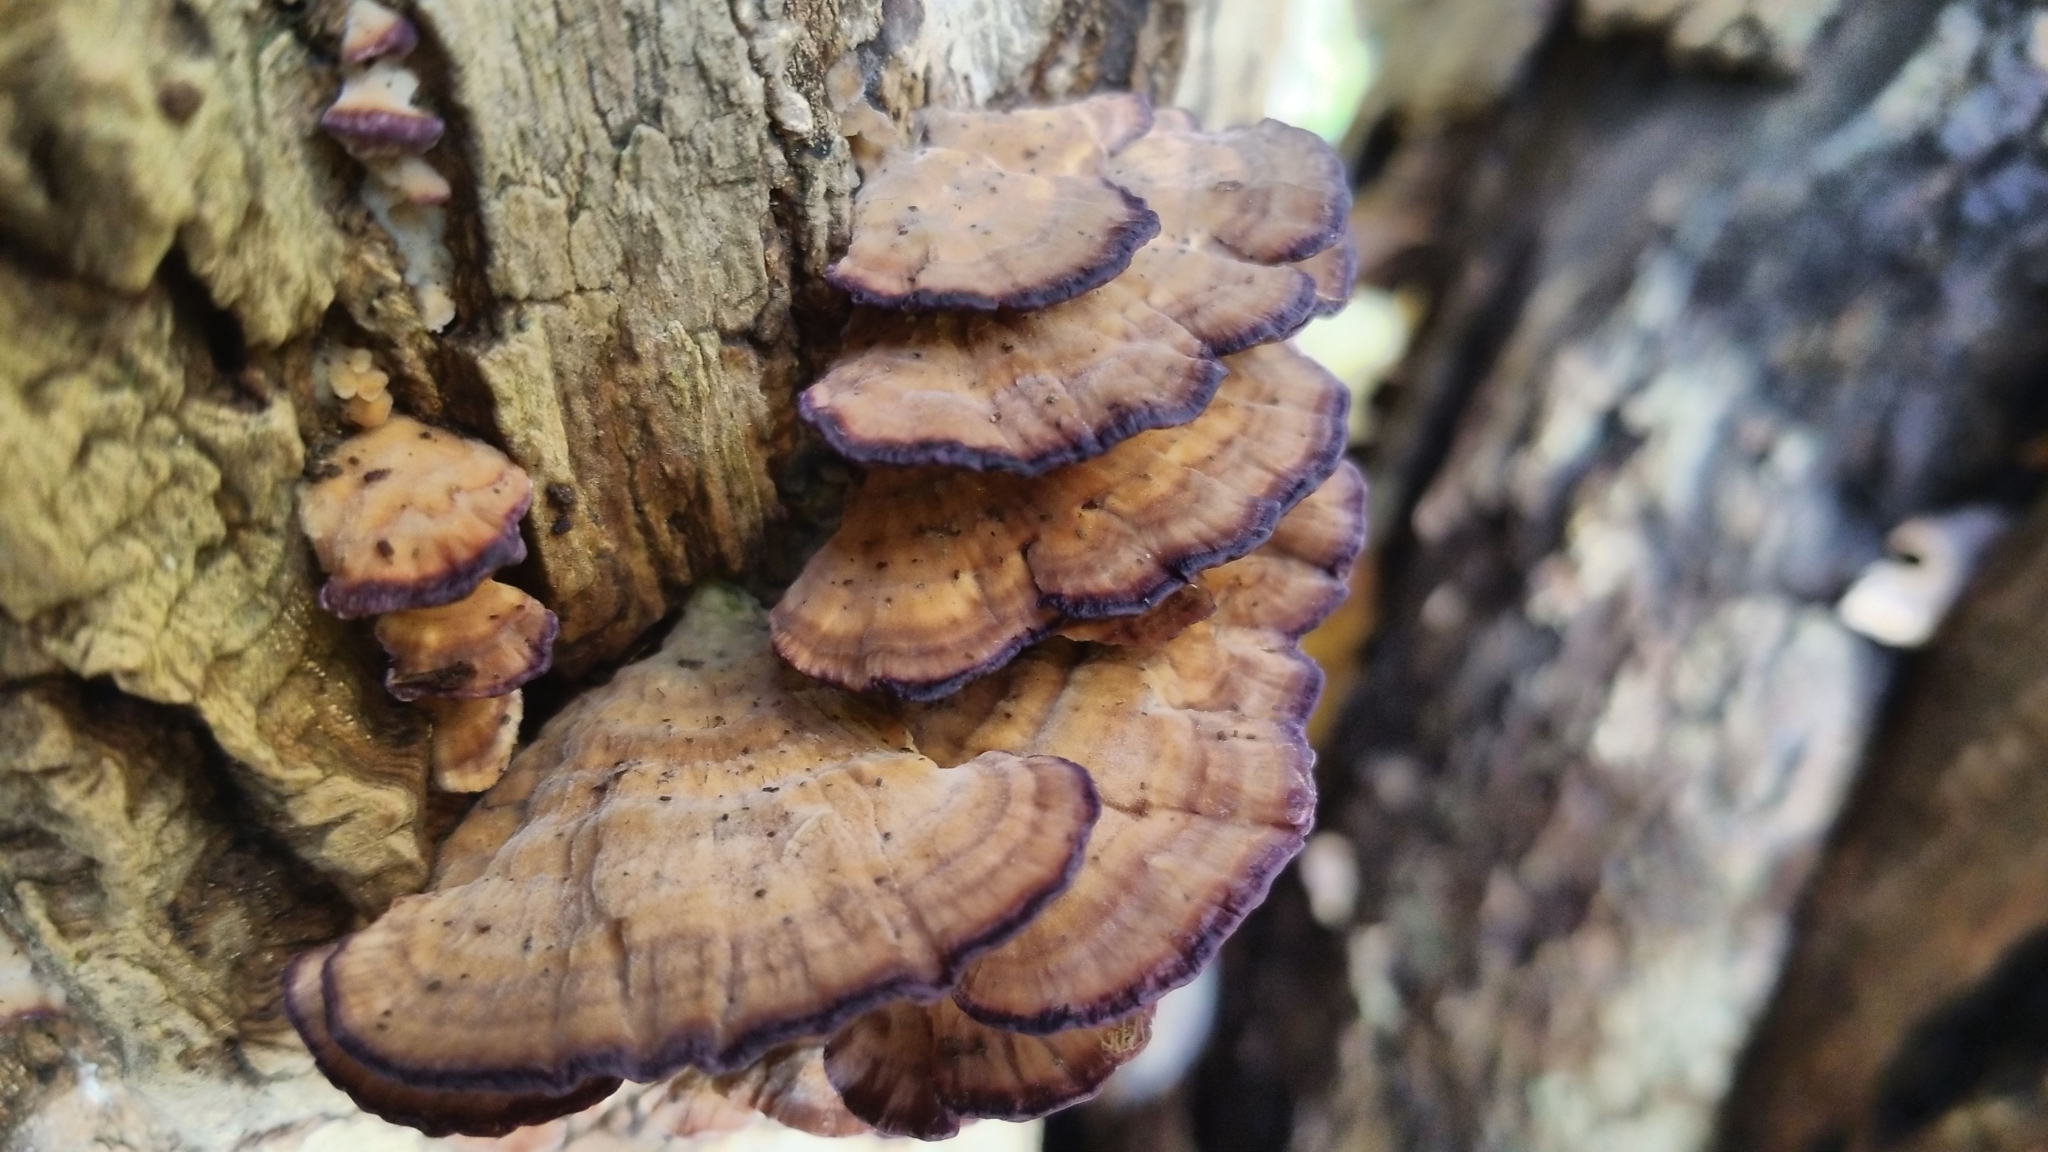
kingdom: Fungi
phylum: Basidiomycota
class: Agaricomycetes
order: Hymenochaetales
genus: Trichaptum
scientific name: Trichaptum biforme
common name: Violet-toothed polypore
